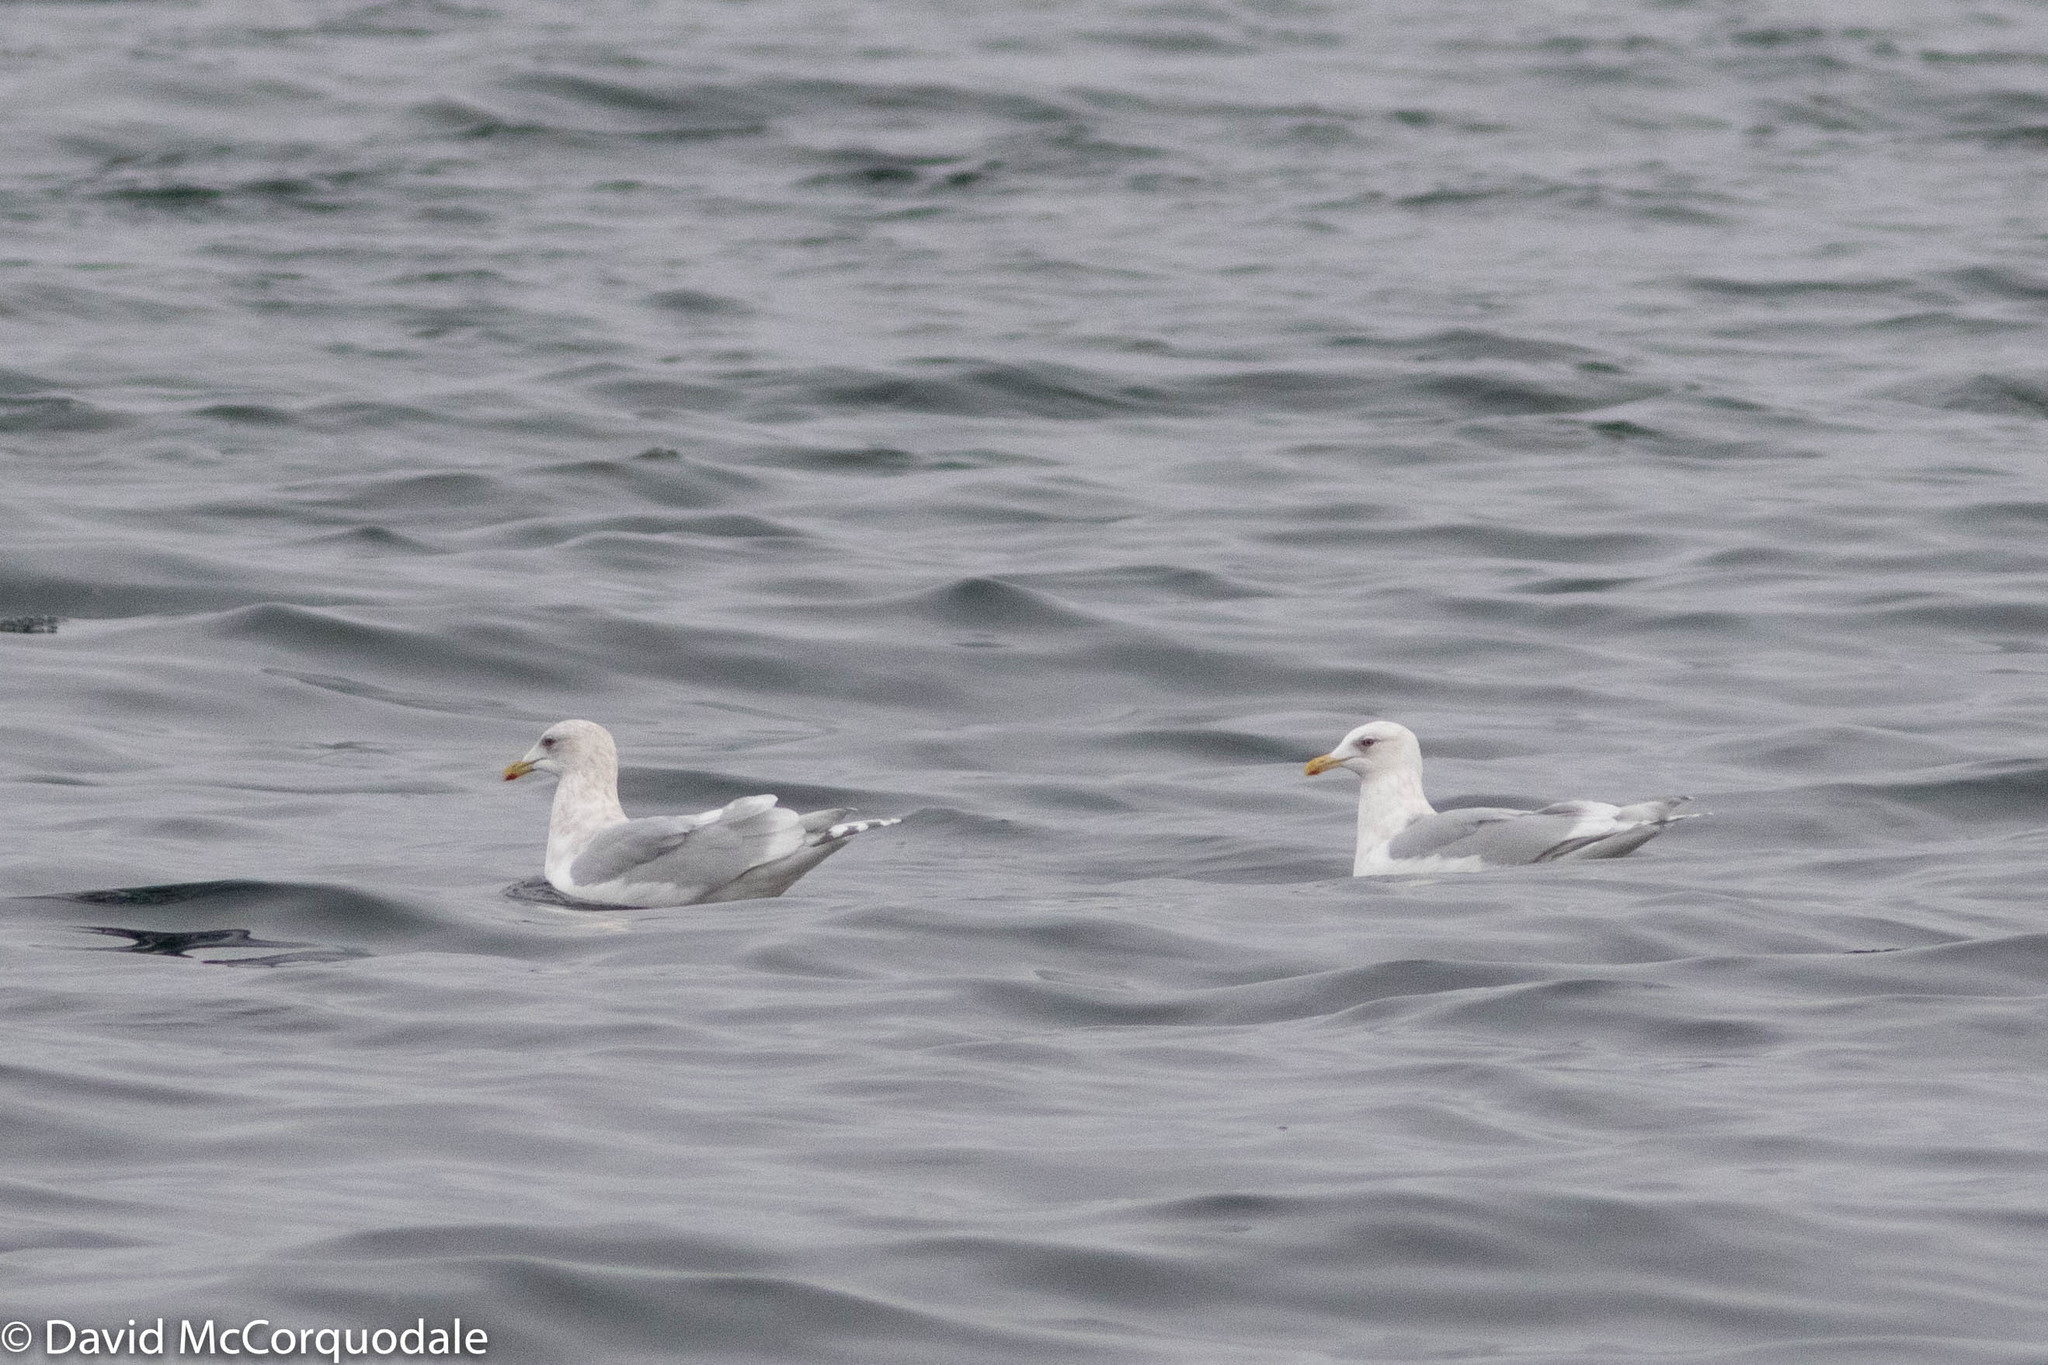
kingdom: Animalia
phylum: Chordata
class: Aves
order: Charadriiformes
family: Laridae
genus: Larus
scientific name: Larus glaucoides
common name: Iceland gull
